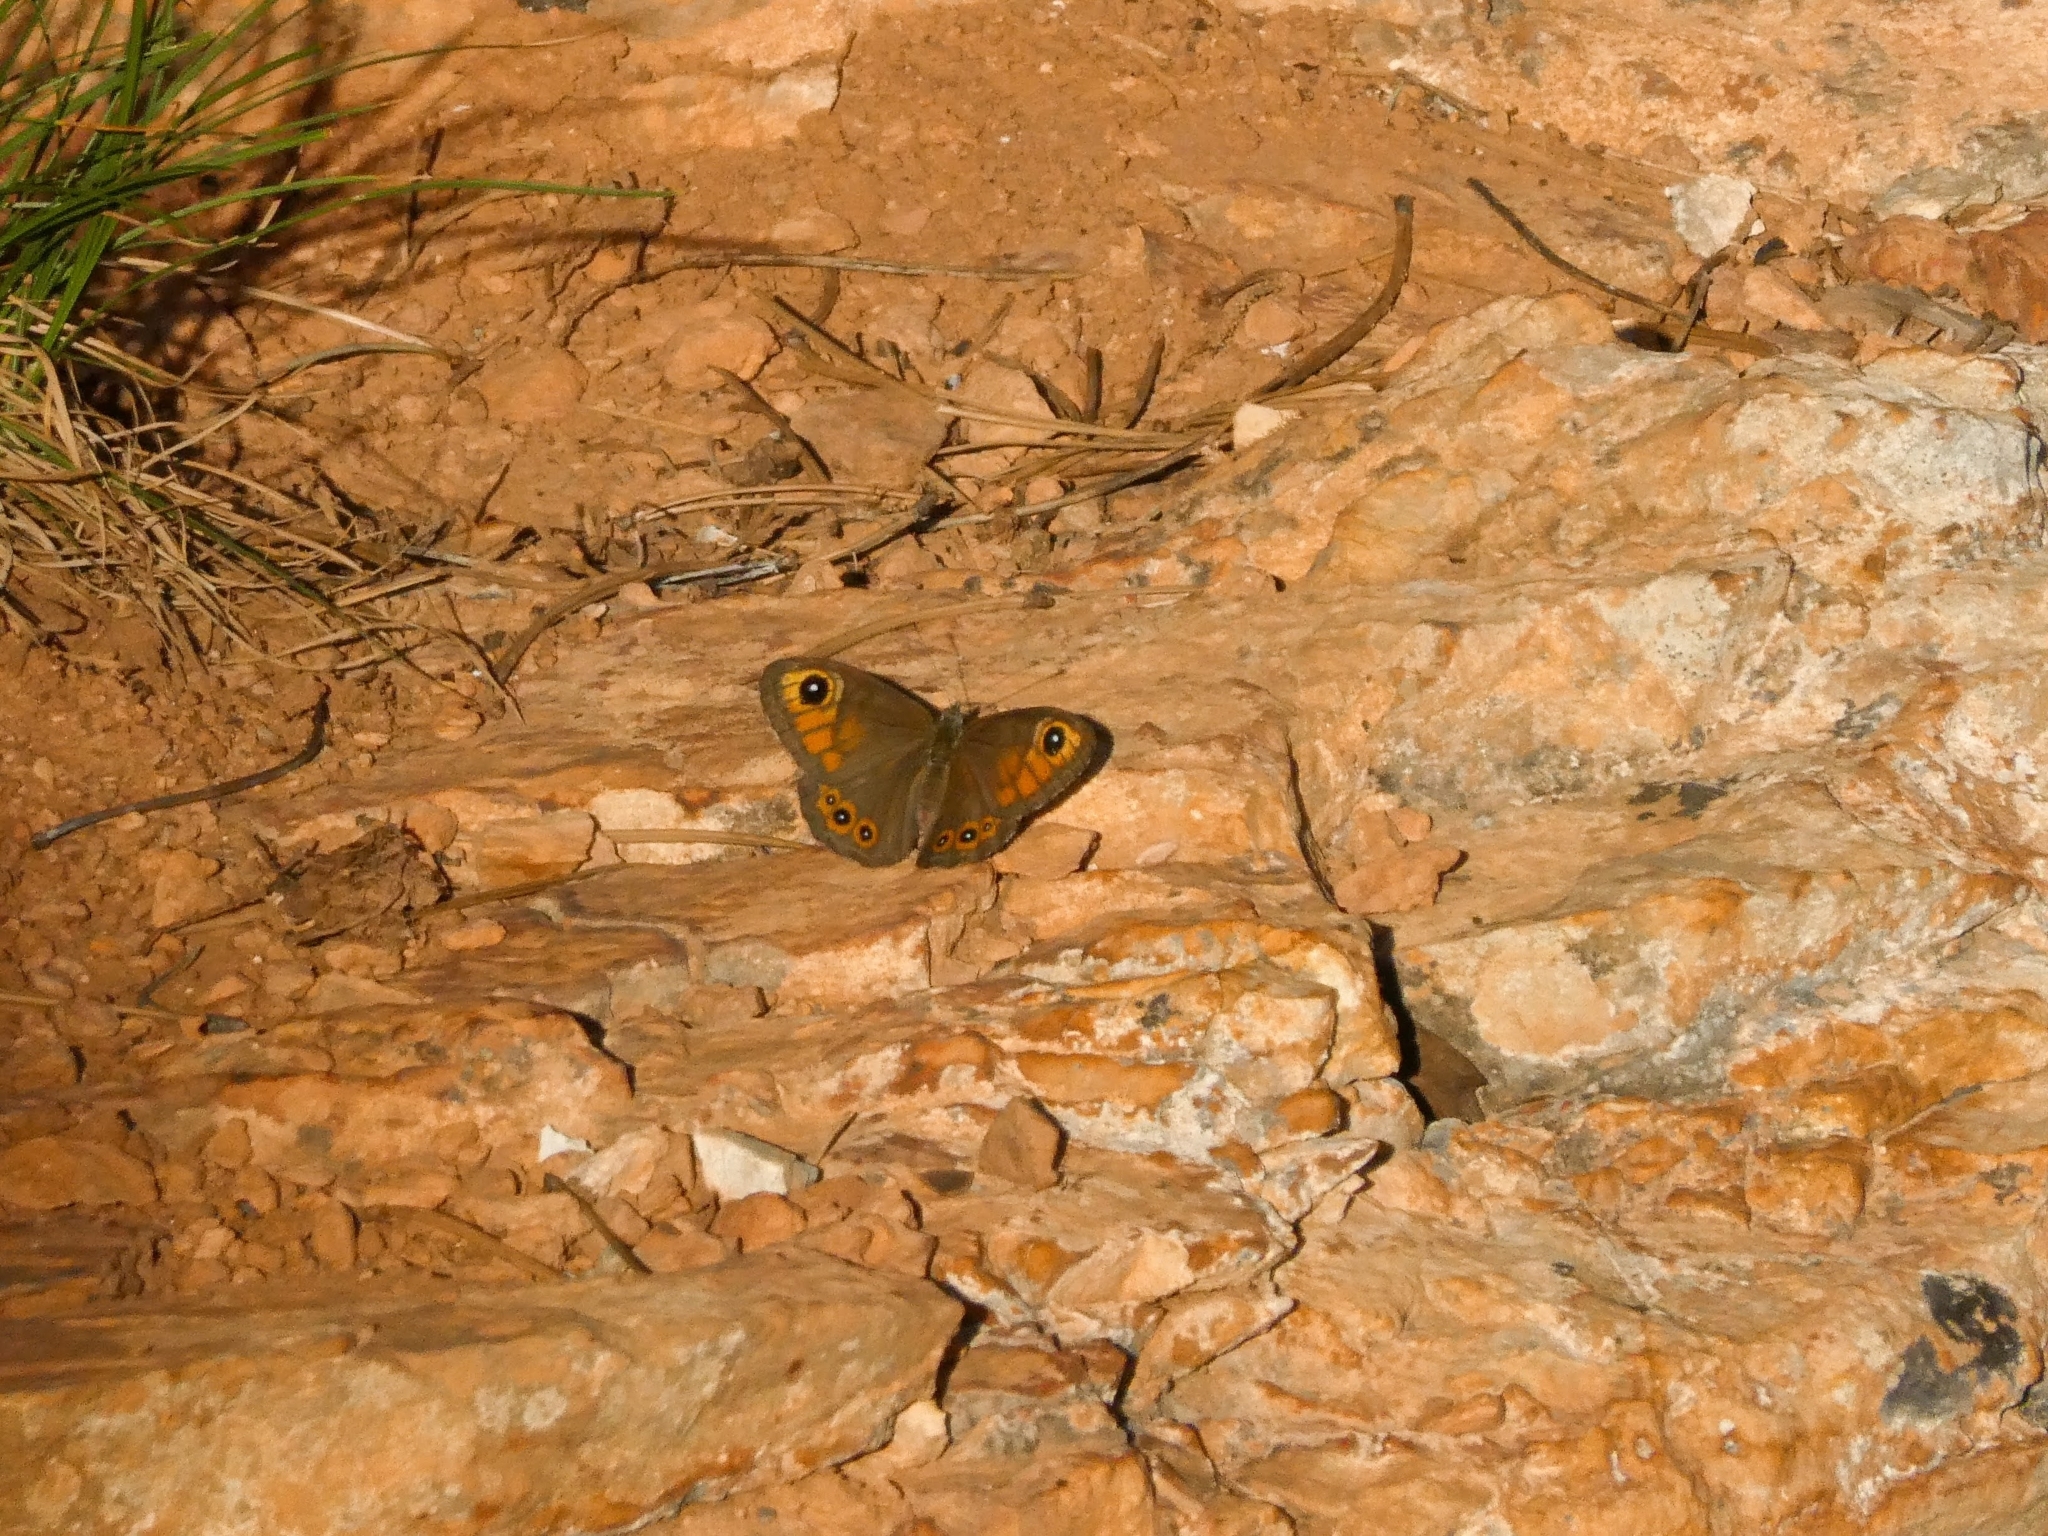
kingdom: Animalia
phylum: Arthropoda
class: Insecta
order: Lepidoptera
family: Nymphalidae
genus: Pararge
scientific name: Pararge Lasiommata maera
